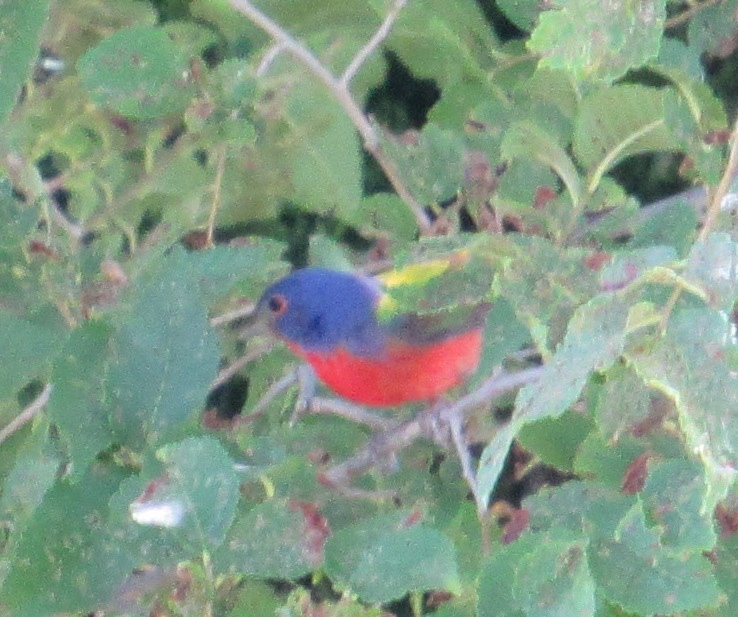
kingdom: Animalia
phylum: Chordata
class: Aves
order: Passeriformes
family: Cardinalidae
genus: Passerina
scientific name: Passerina ciris
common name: Painted bunting
